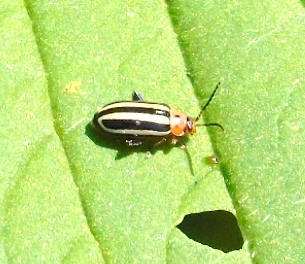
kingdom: Animalia
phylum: Arthropoda
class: Insecta
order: Coleoptera
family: Chrysomelidae
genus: Disonycha
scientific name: Disonycha glabrata
